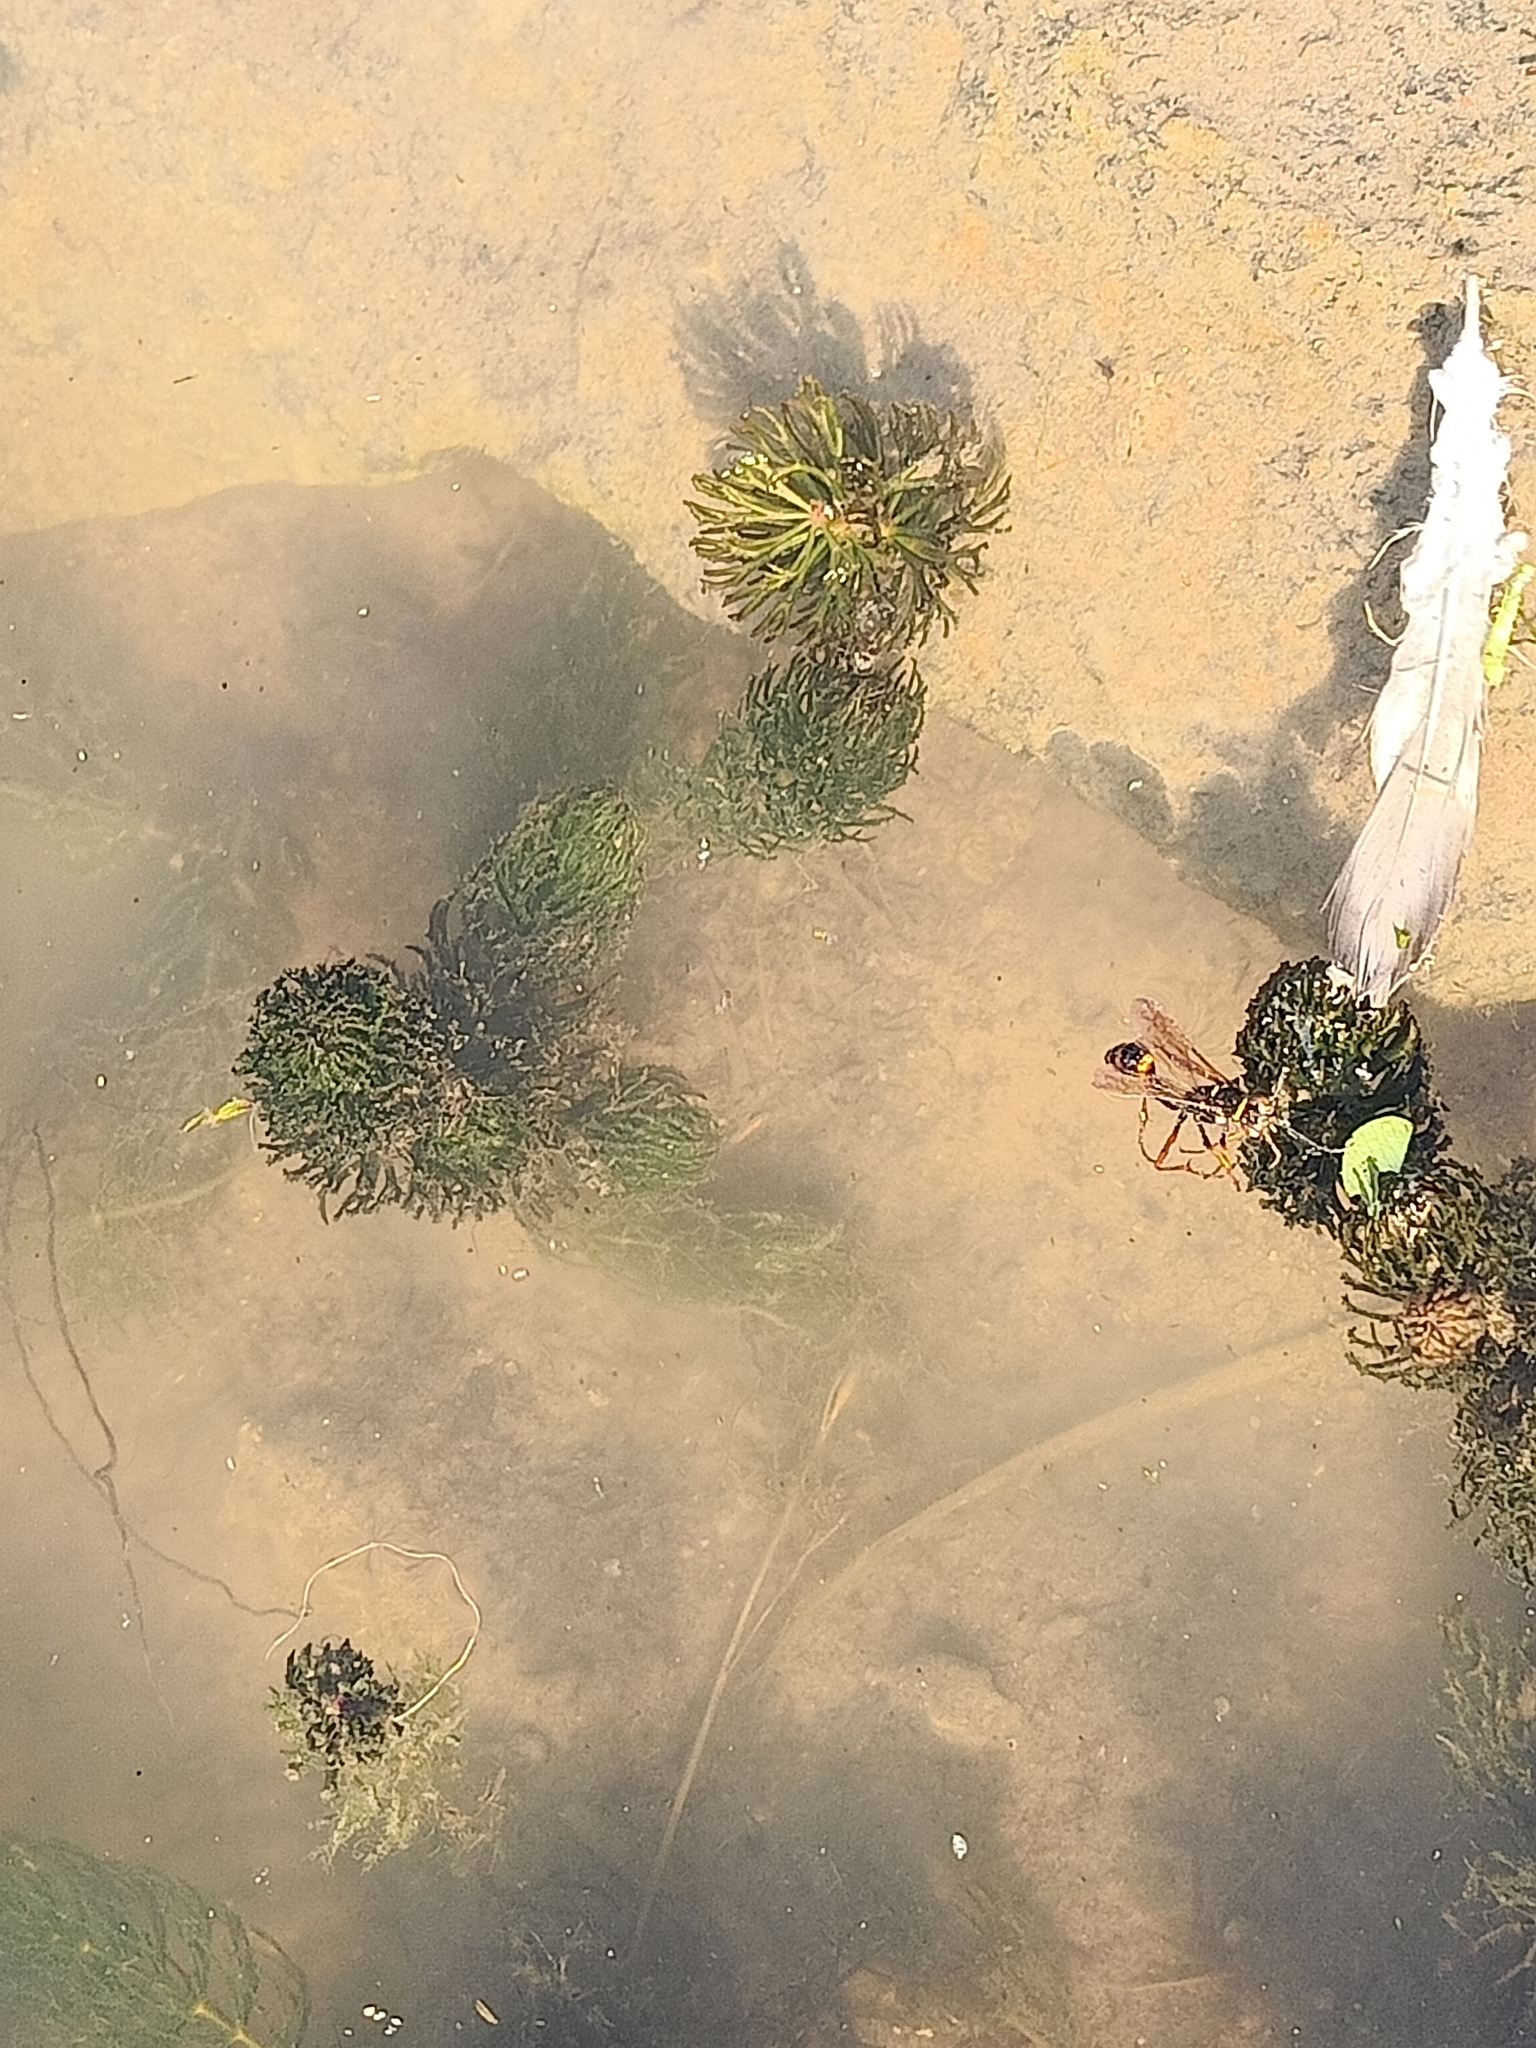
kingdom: Plantae
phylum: Tracheophyta
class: Magnoliopsida
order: Ceratophyllales
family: Ceratophyllaceae
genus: Ceratophyllum
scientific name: Ceratophyllum demersum
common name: Rigid hornwort
